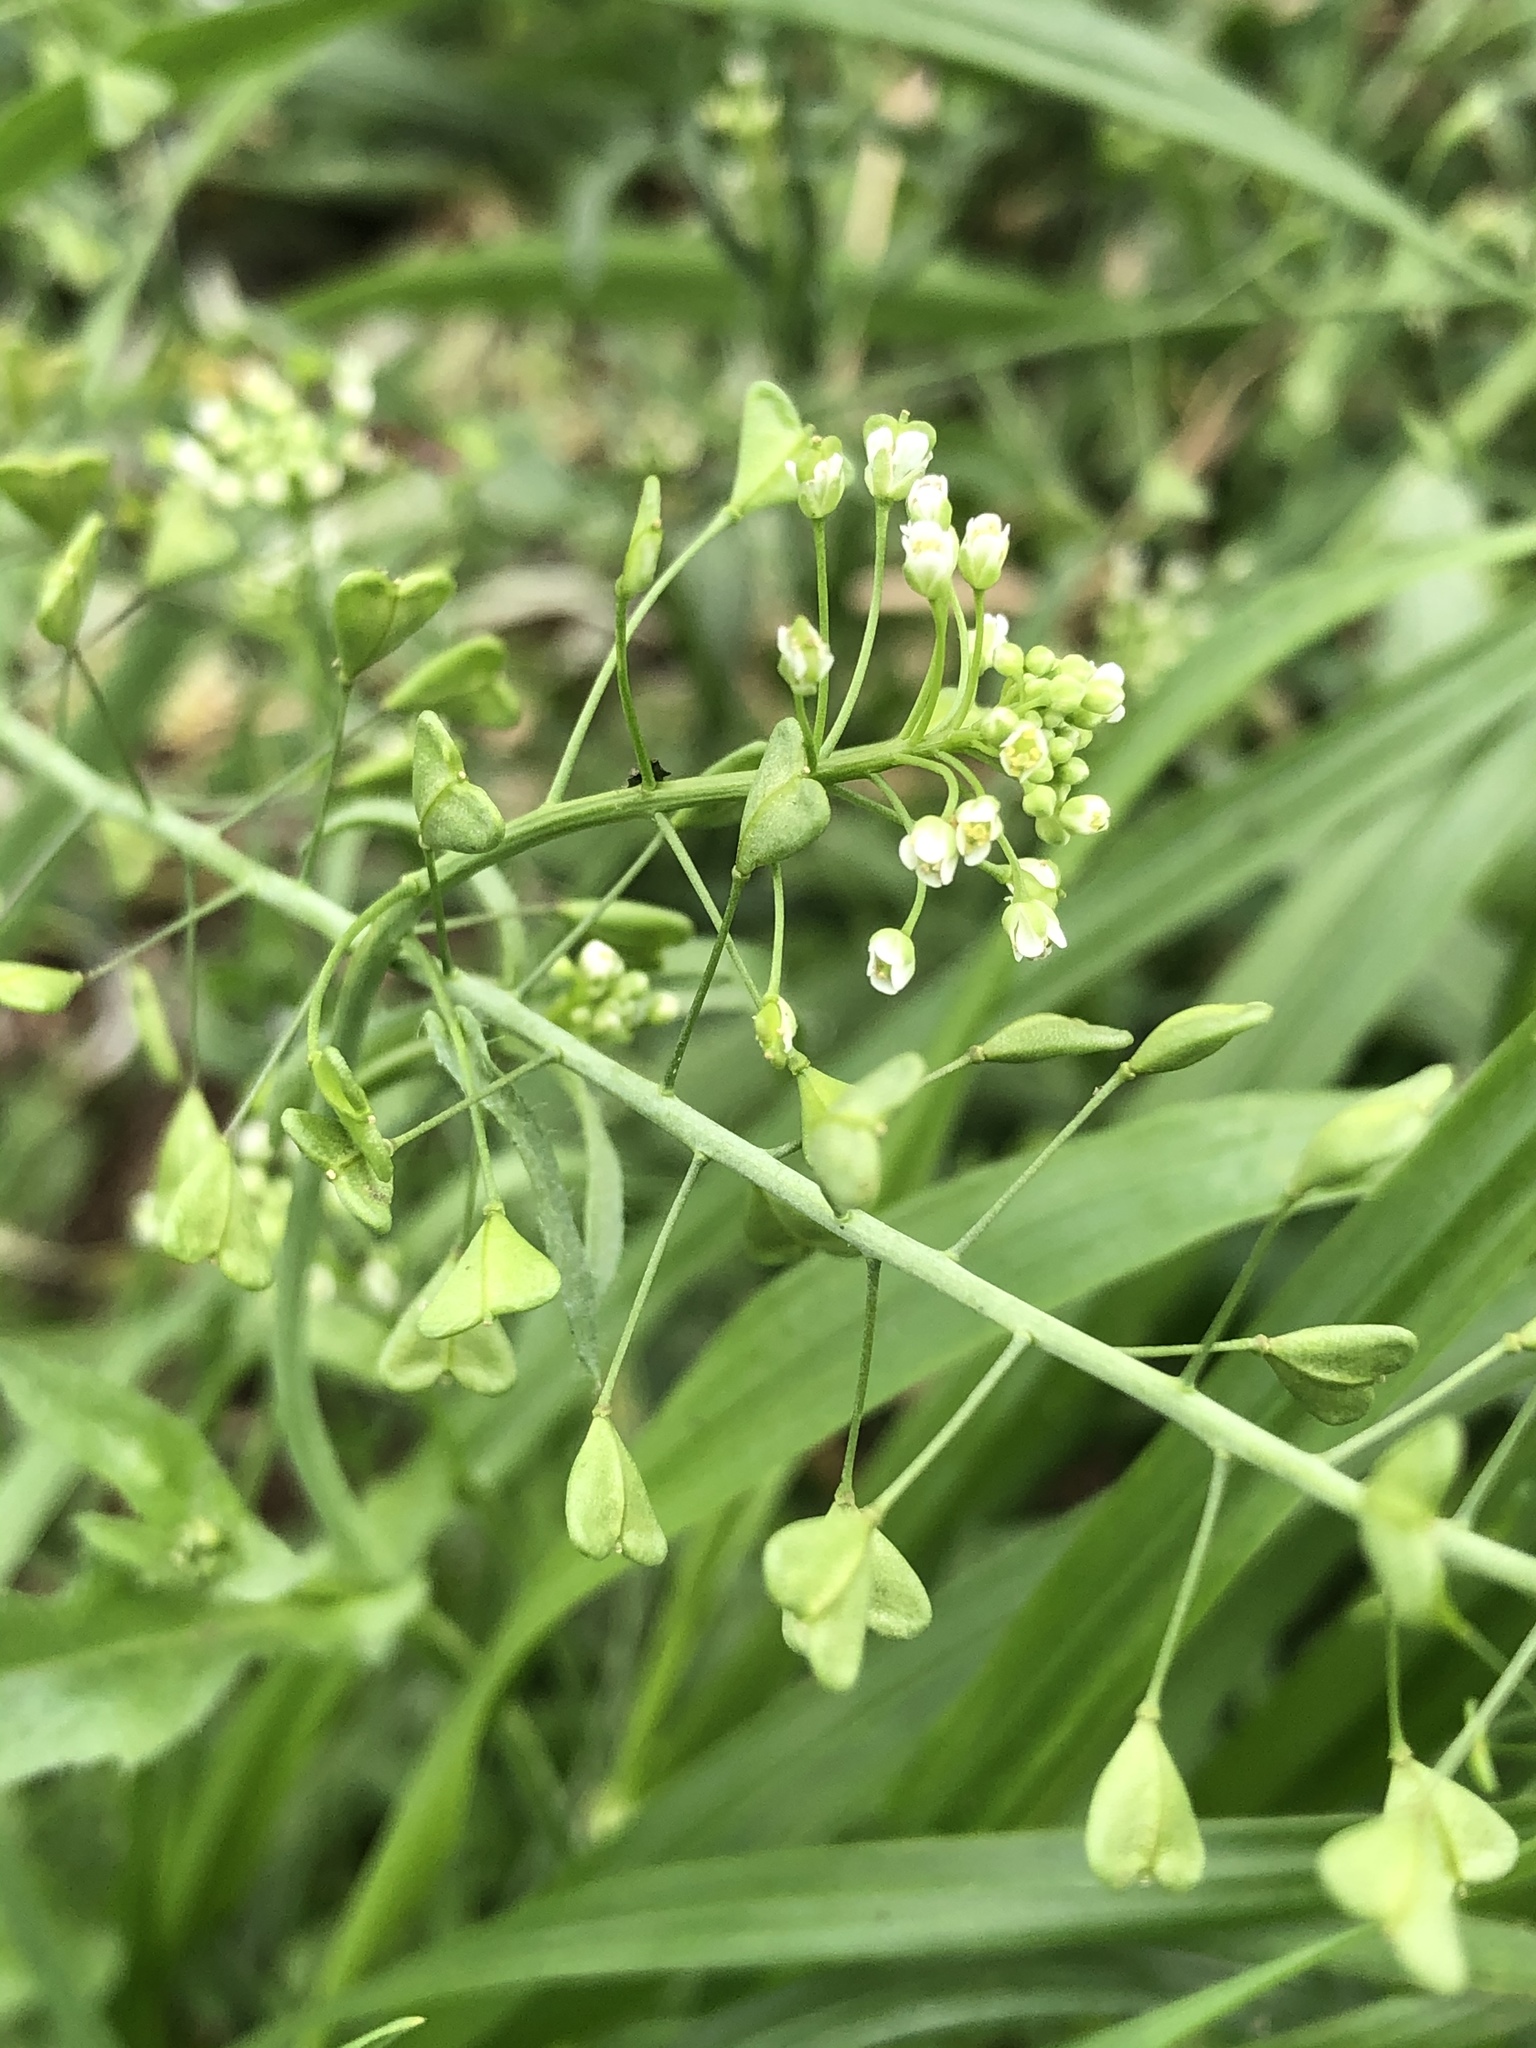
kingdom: Plantae
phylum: Tracheophyta
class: Magnoliopsida
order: Brassicales
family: Brassicaceae
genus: Capsella
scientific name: Capsella bursa-pastoris
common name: Shepherd's purse
